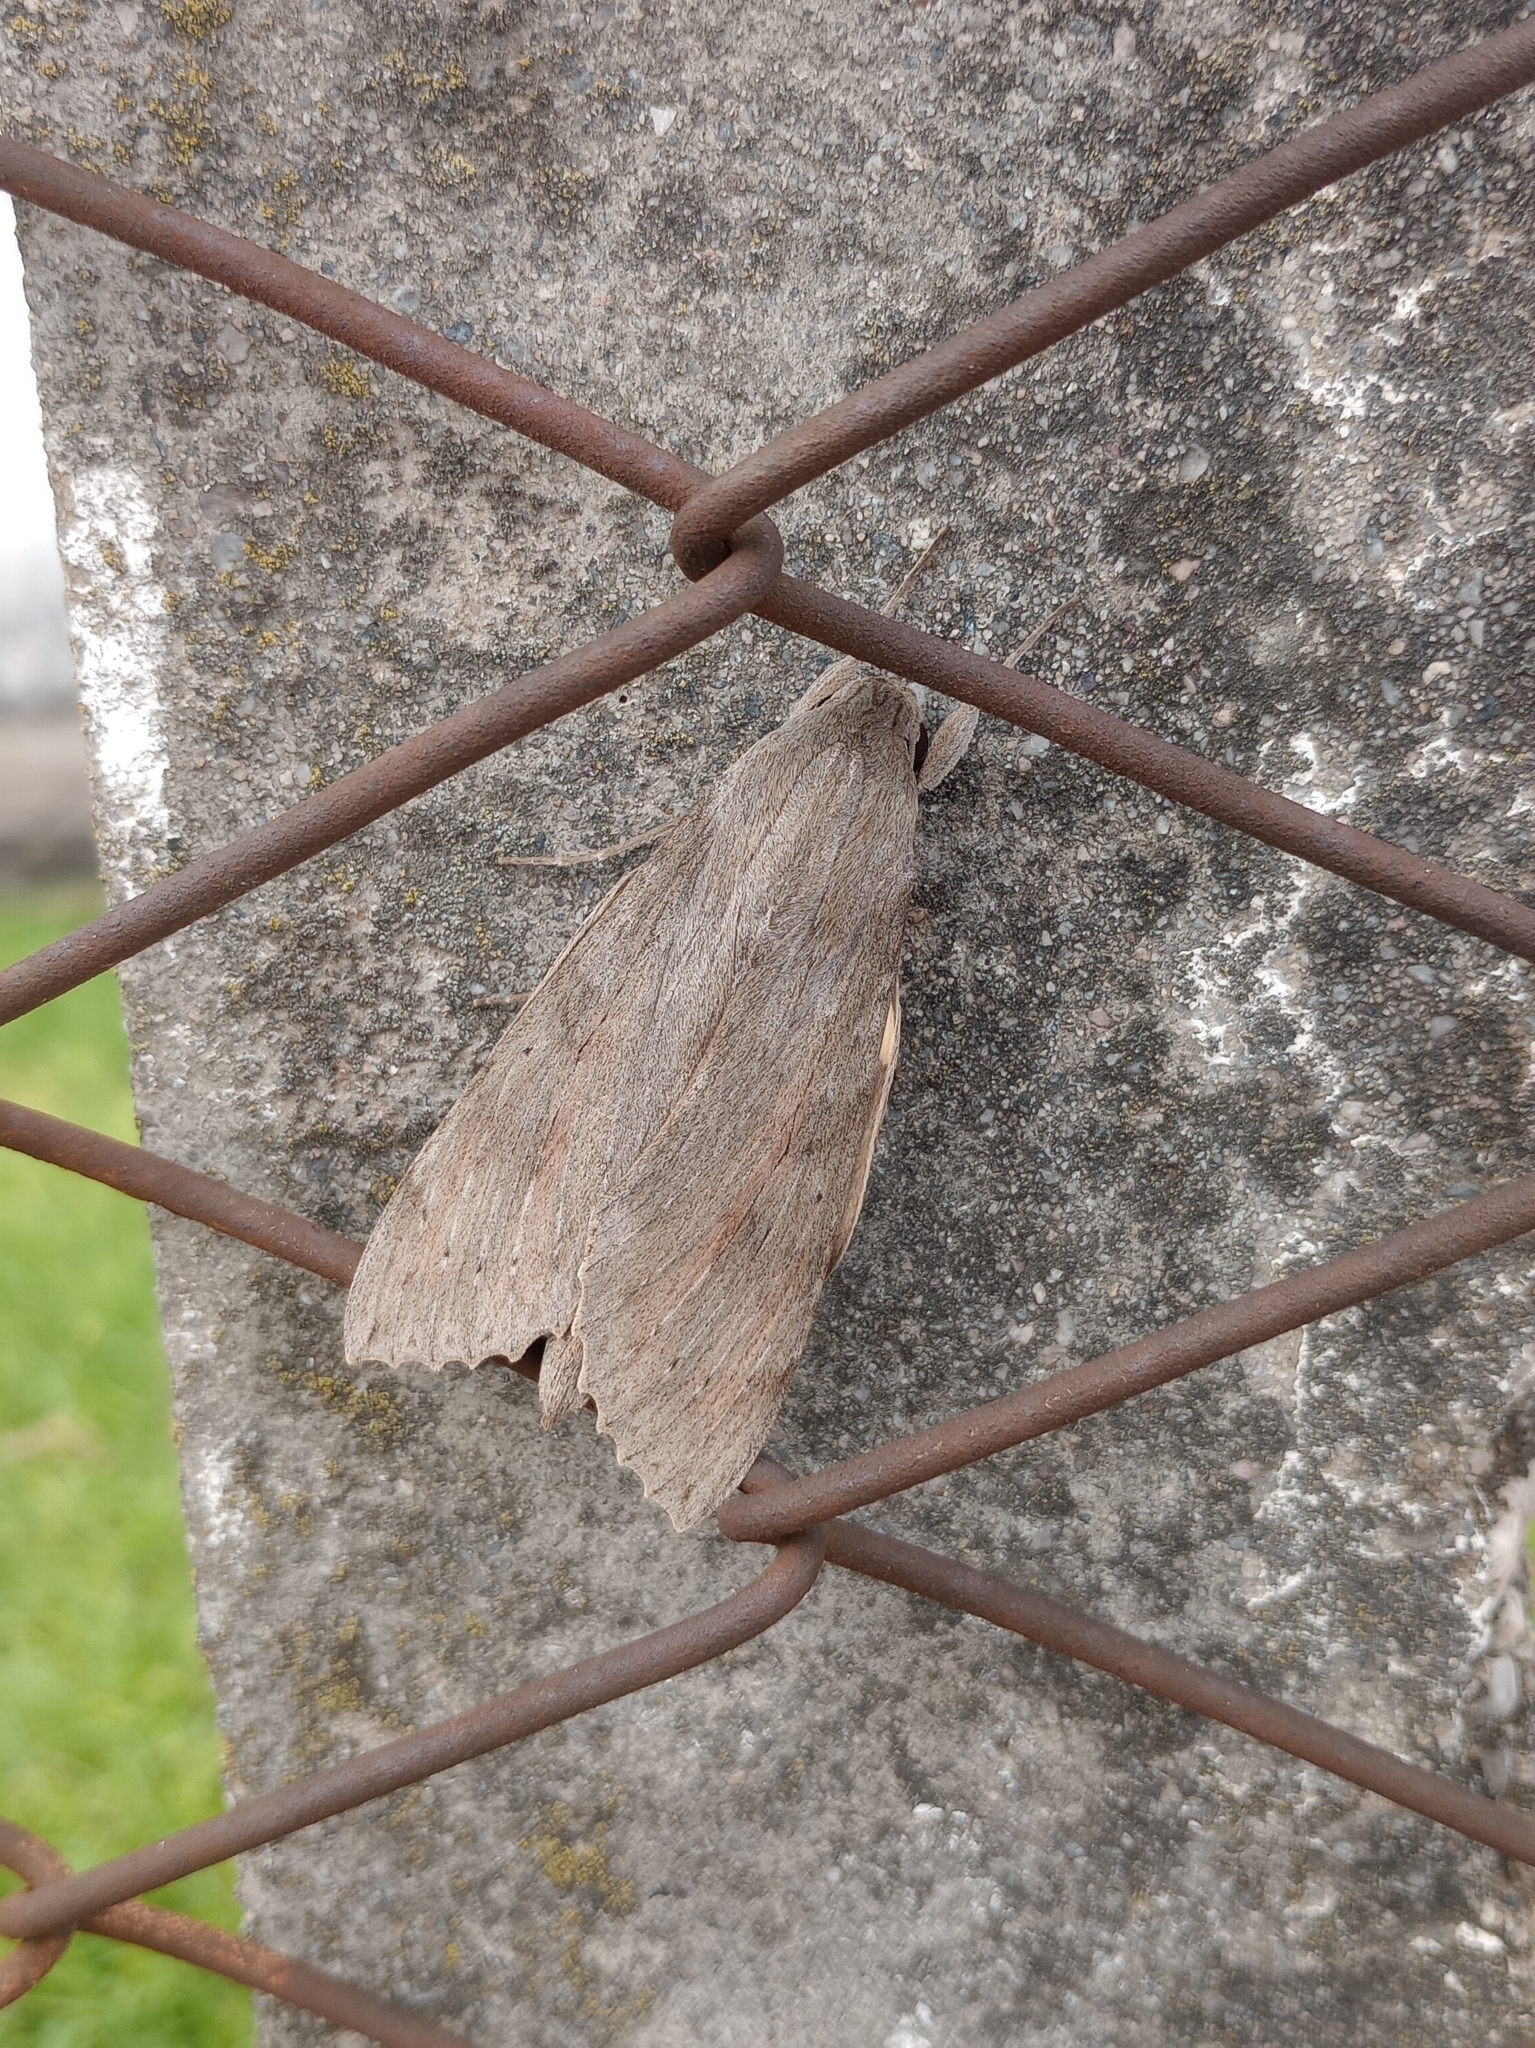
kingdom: Animalia
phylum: Arthropoda
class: Insecta
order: Lepidoptera
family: Sphingidae
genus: Erinnyis
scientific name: Erinnyis ello
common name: Ello sphinx
